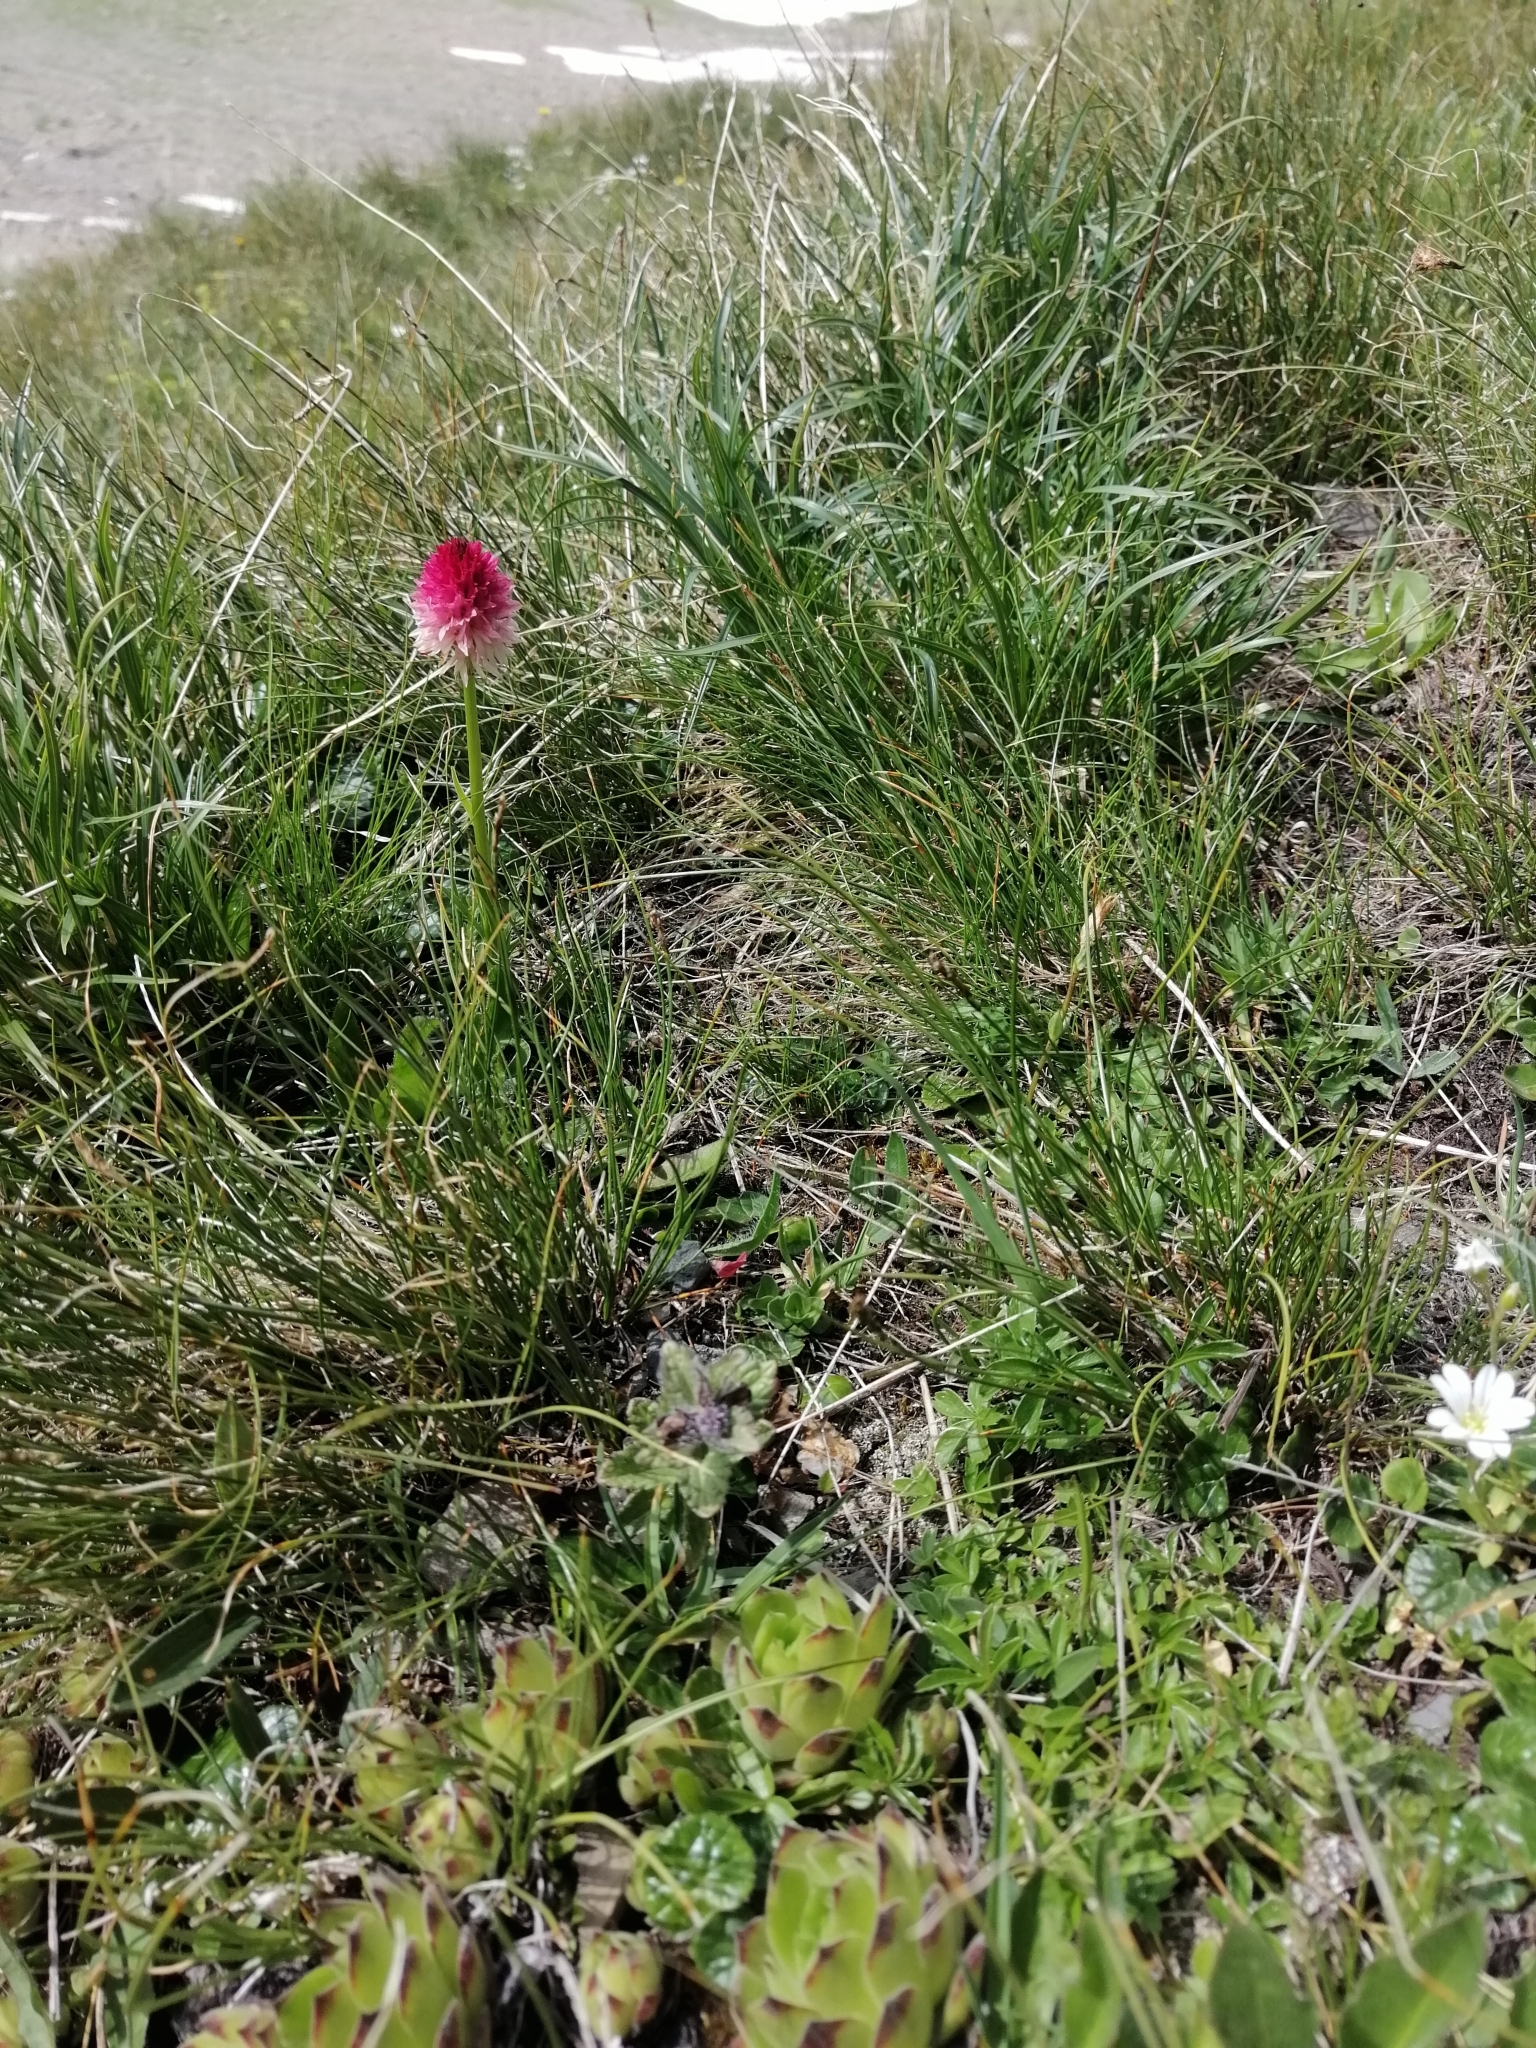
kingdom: Plantae
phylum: Tracheophyta
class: Liliopsida
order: Asparagales
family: Orchidaceae
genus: Gymnadenia
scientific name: Gymnadenia corneliana
